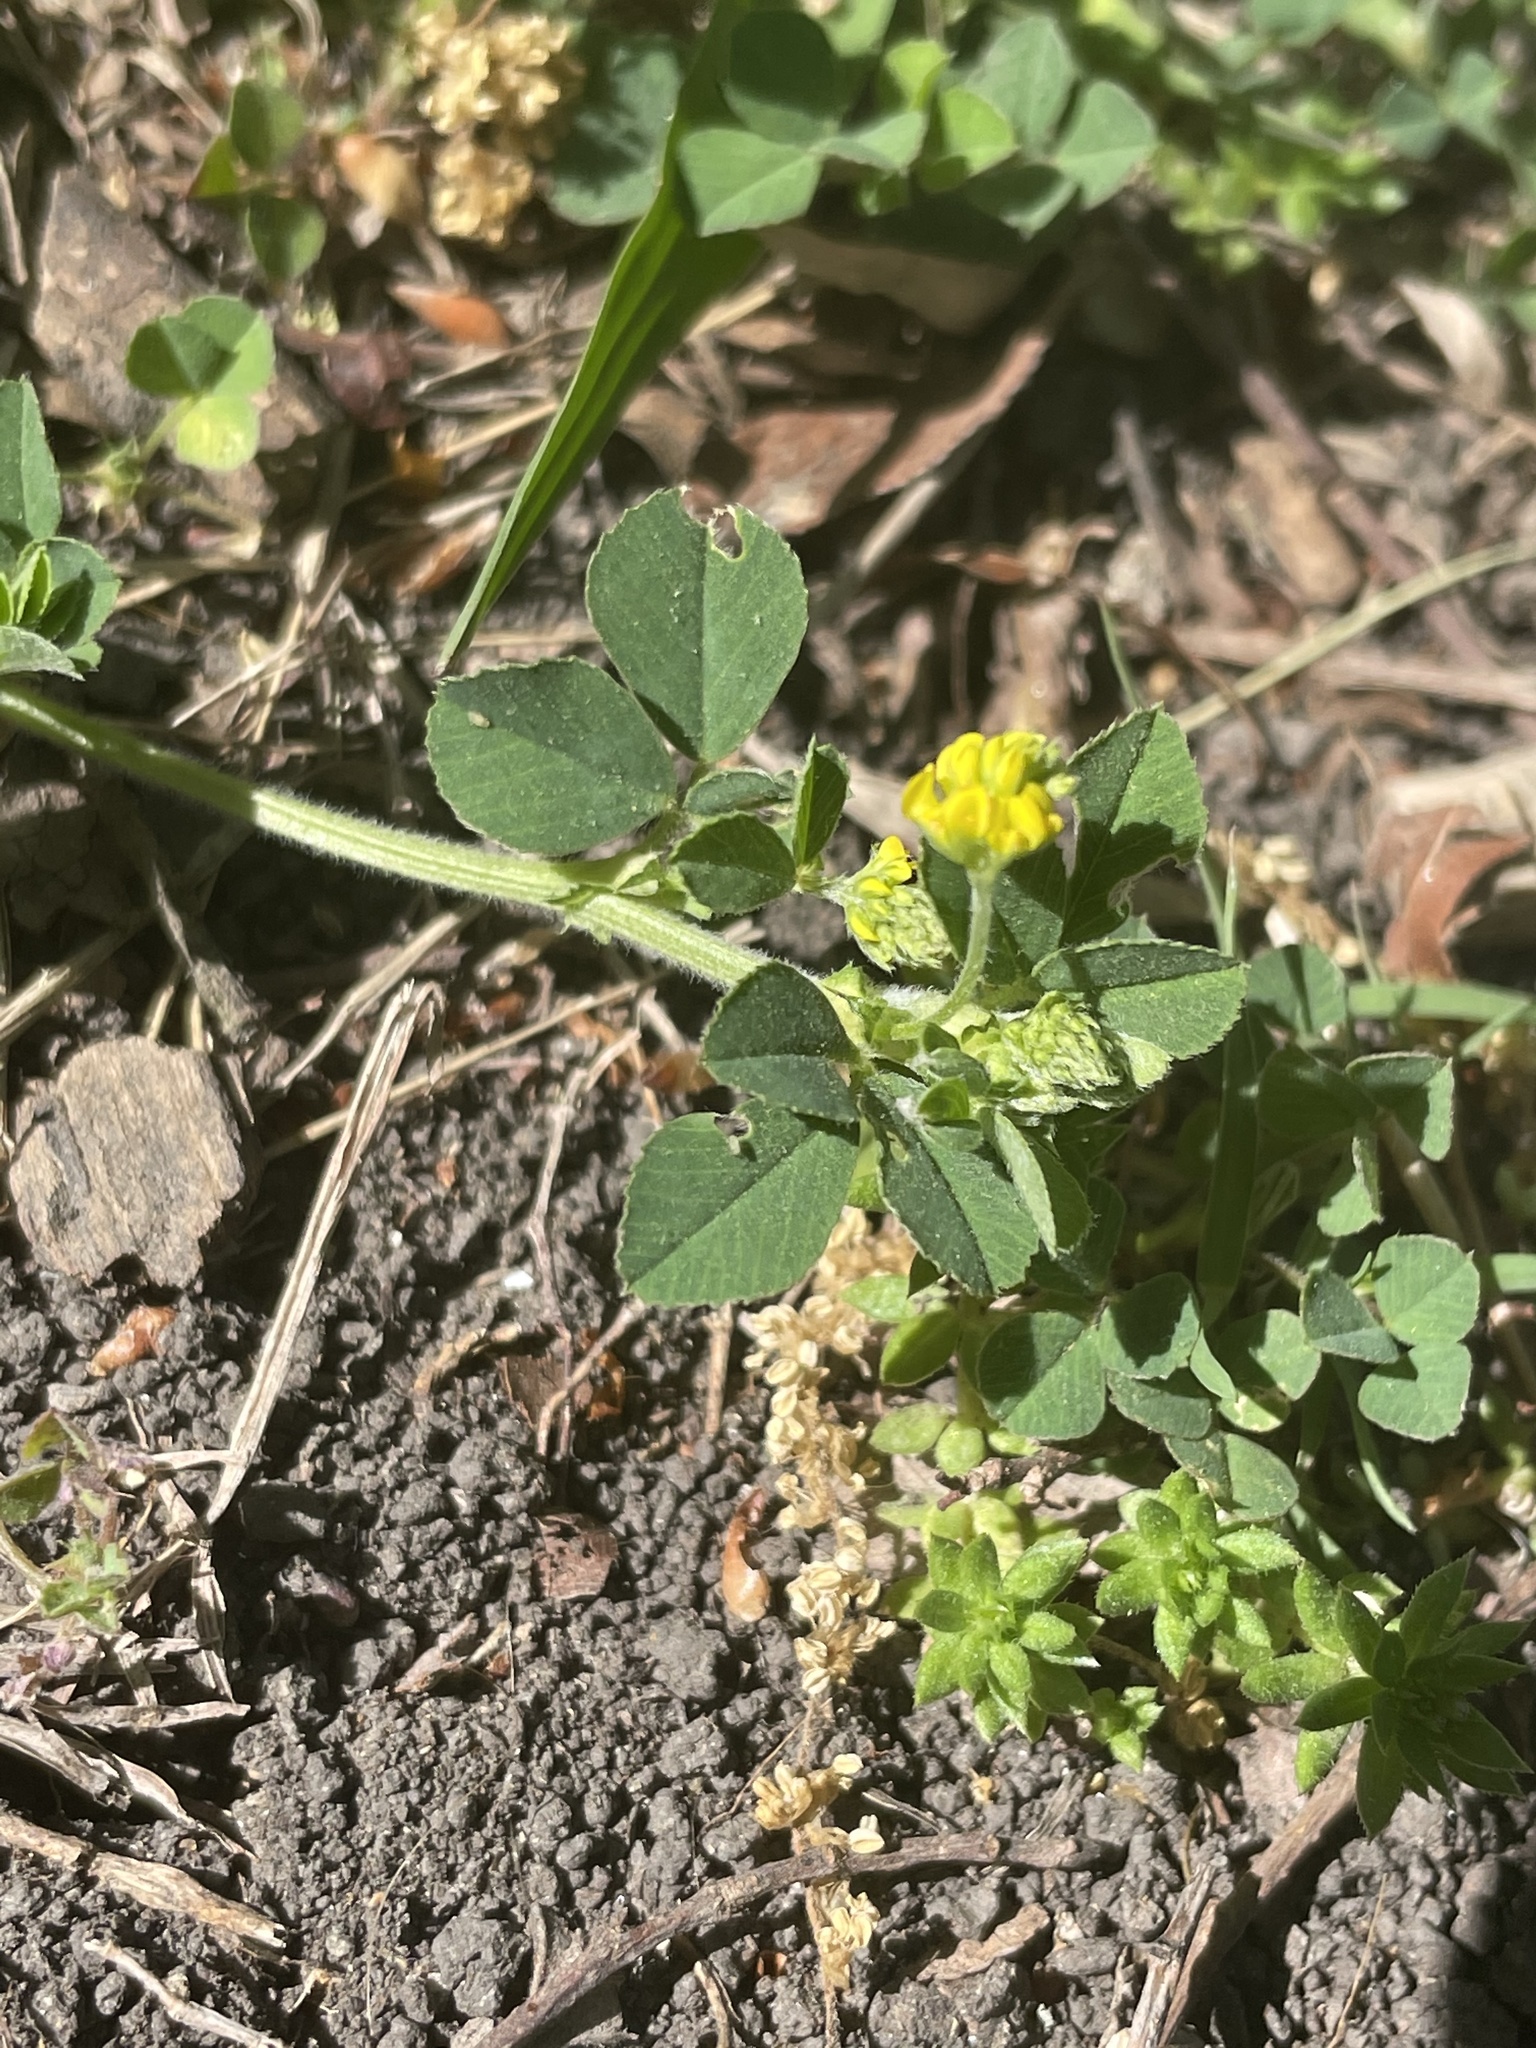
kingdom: Plantae
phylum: Tracheophyta
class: Magnoliopsida
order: Fabales
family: Fabaceae
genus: Medicago
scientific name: Medicago lupulina
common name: Black medick
